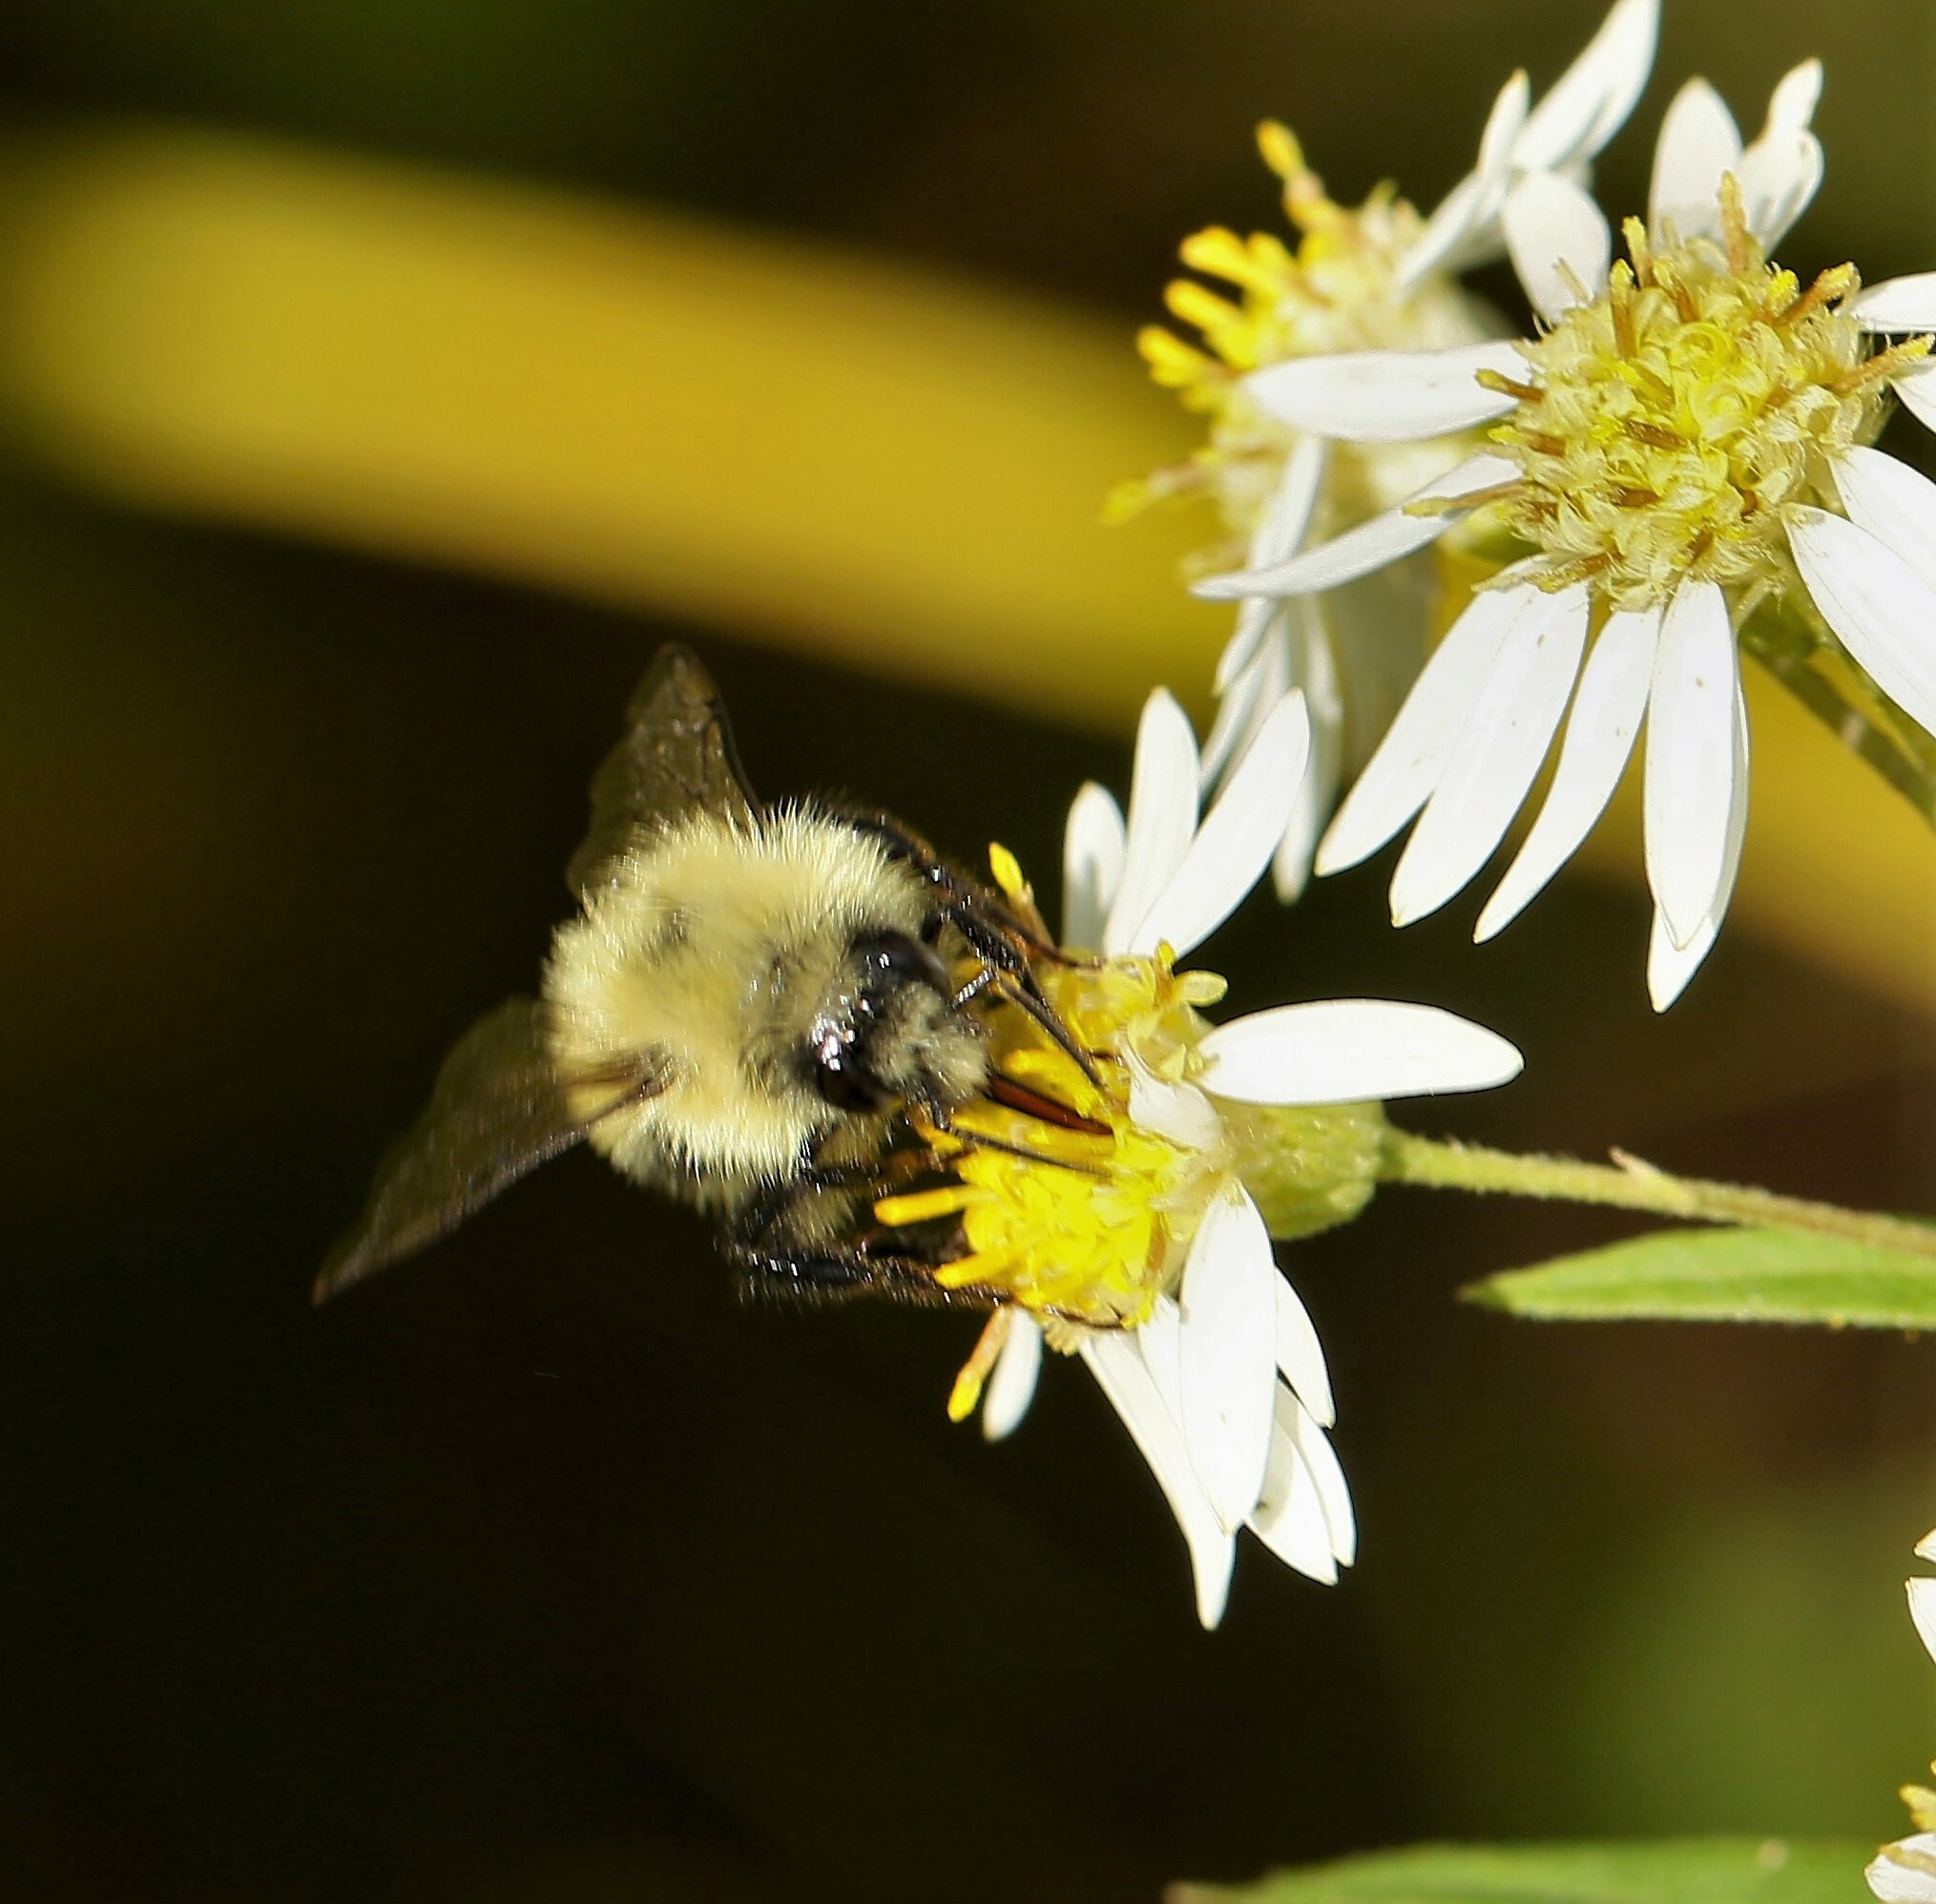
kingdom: Animalia
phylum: Arthropoda
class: Insecta
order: Hymenoptera
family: Apidae
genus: Pyrobombus
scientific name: Pyrobombus
